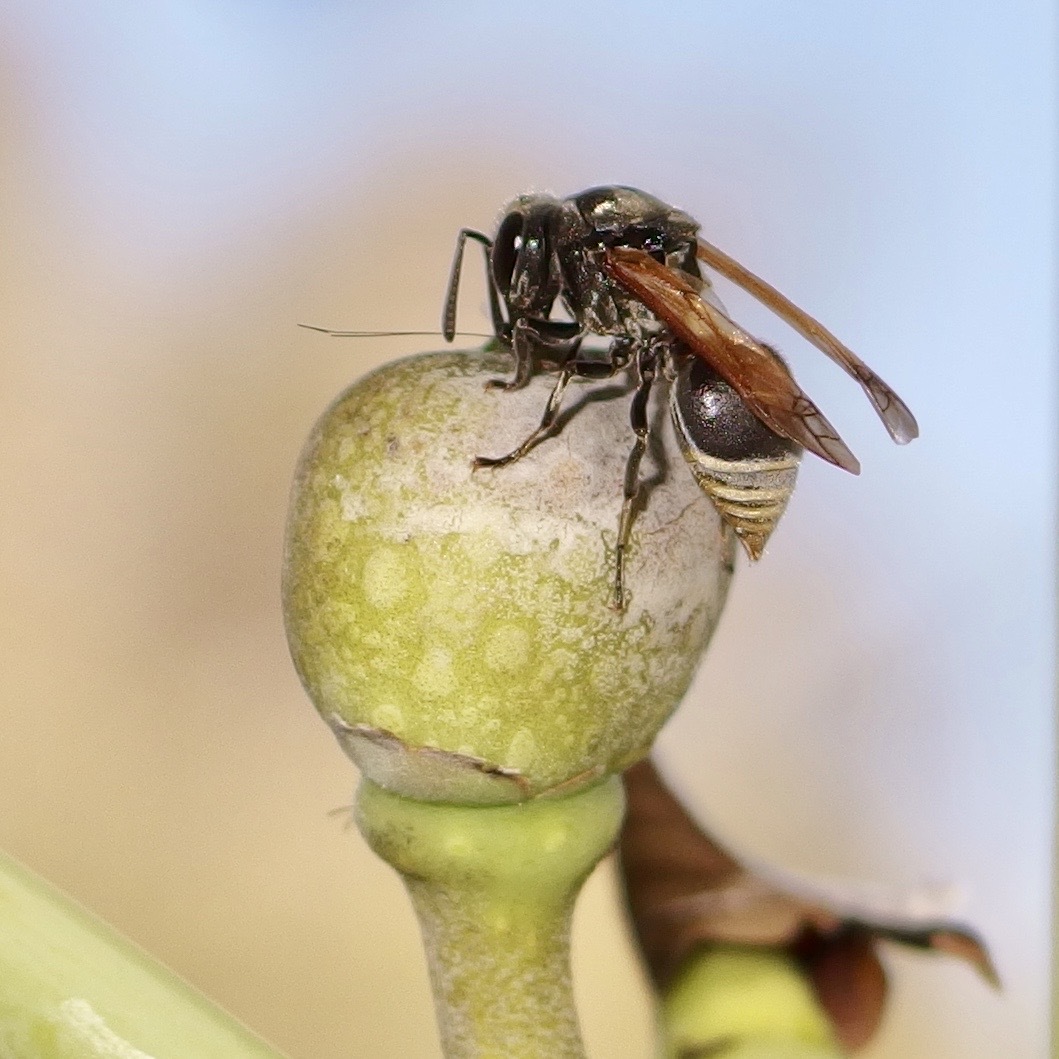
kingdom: Animalia
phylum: Arthropoda
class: Insecta
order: Hymenoptera
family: Vespidae
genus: Brachygastra
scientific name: Brachygastra mellifica
